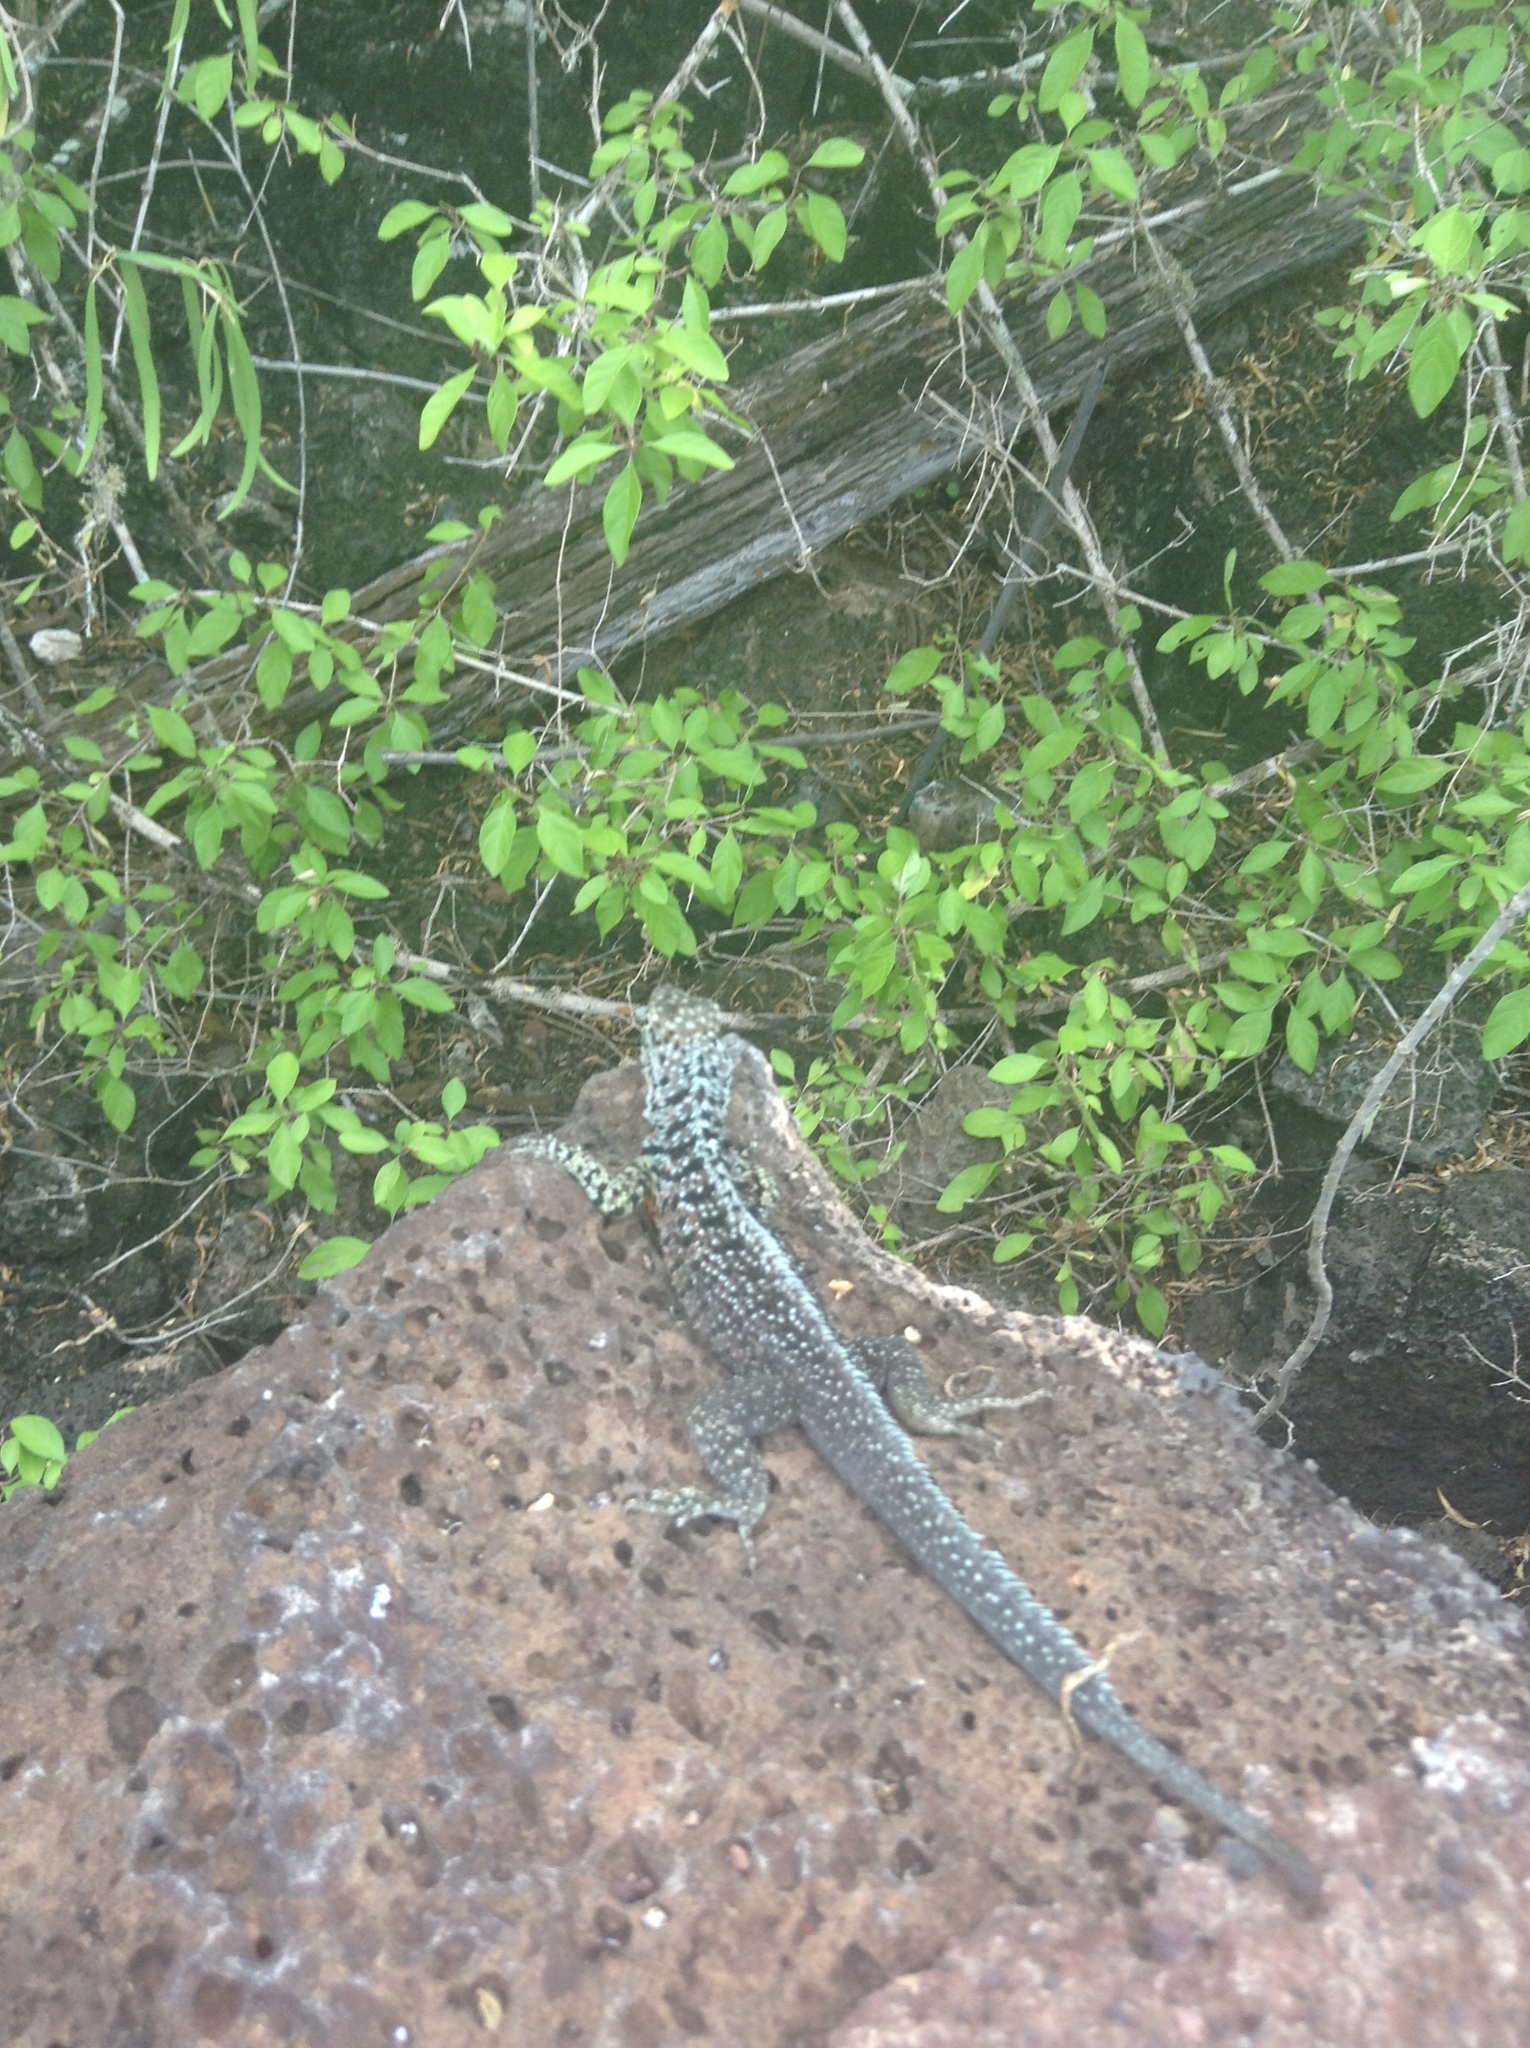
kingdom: Animalia
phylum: Chordata
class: Squamata
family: Tropiduridae
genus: Microlophus
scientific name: Microlophus indefatigabilis
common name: Galapagos lava lizard
